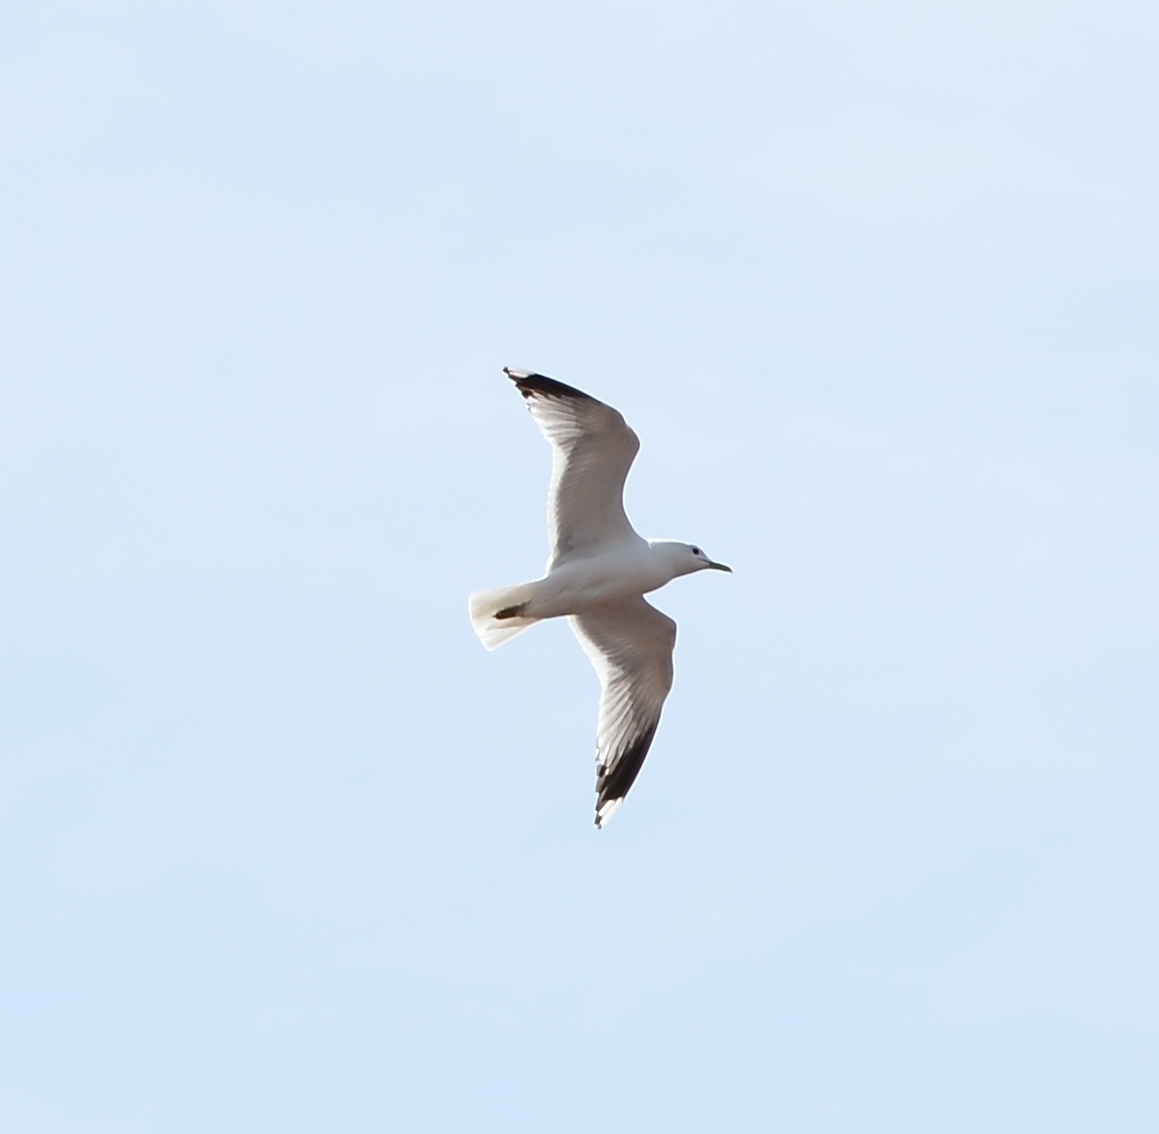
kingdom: Animalia
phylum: Chordata
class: Aves
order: Charadriiformes
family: Laridae
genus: Larus
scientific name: Larus canus
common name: Mew gull
